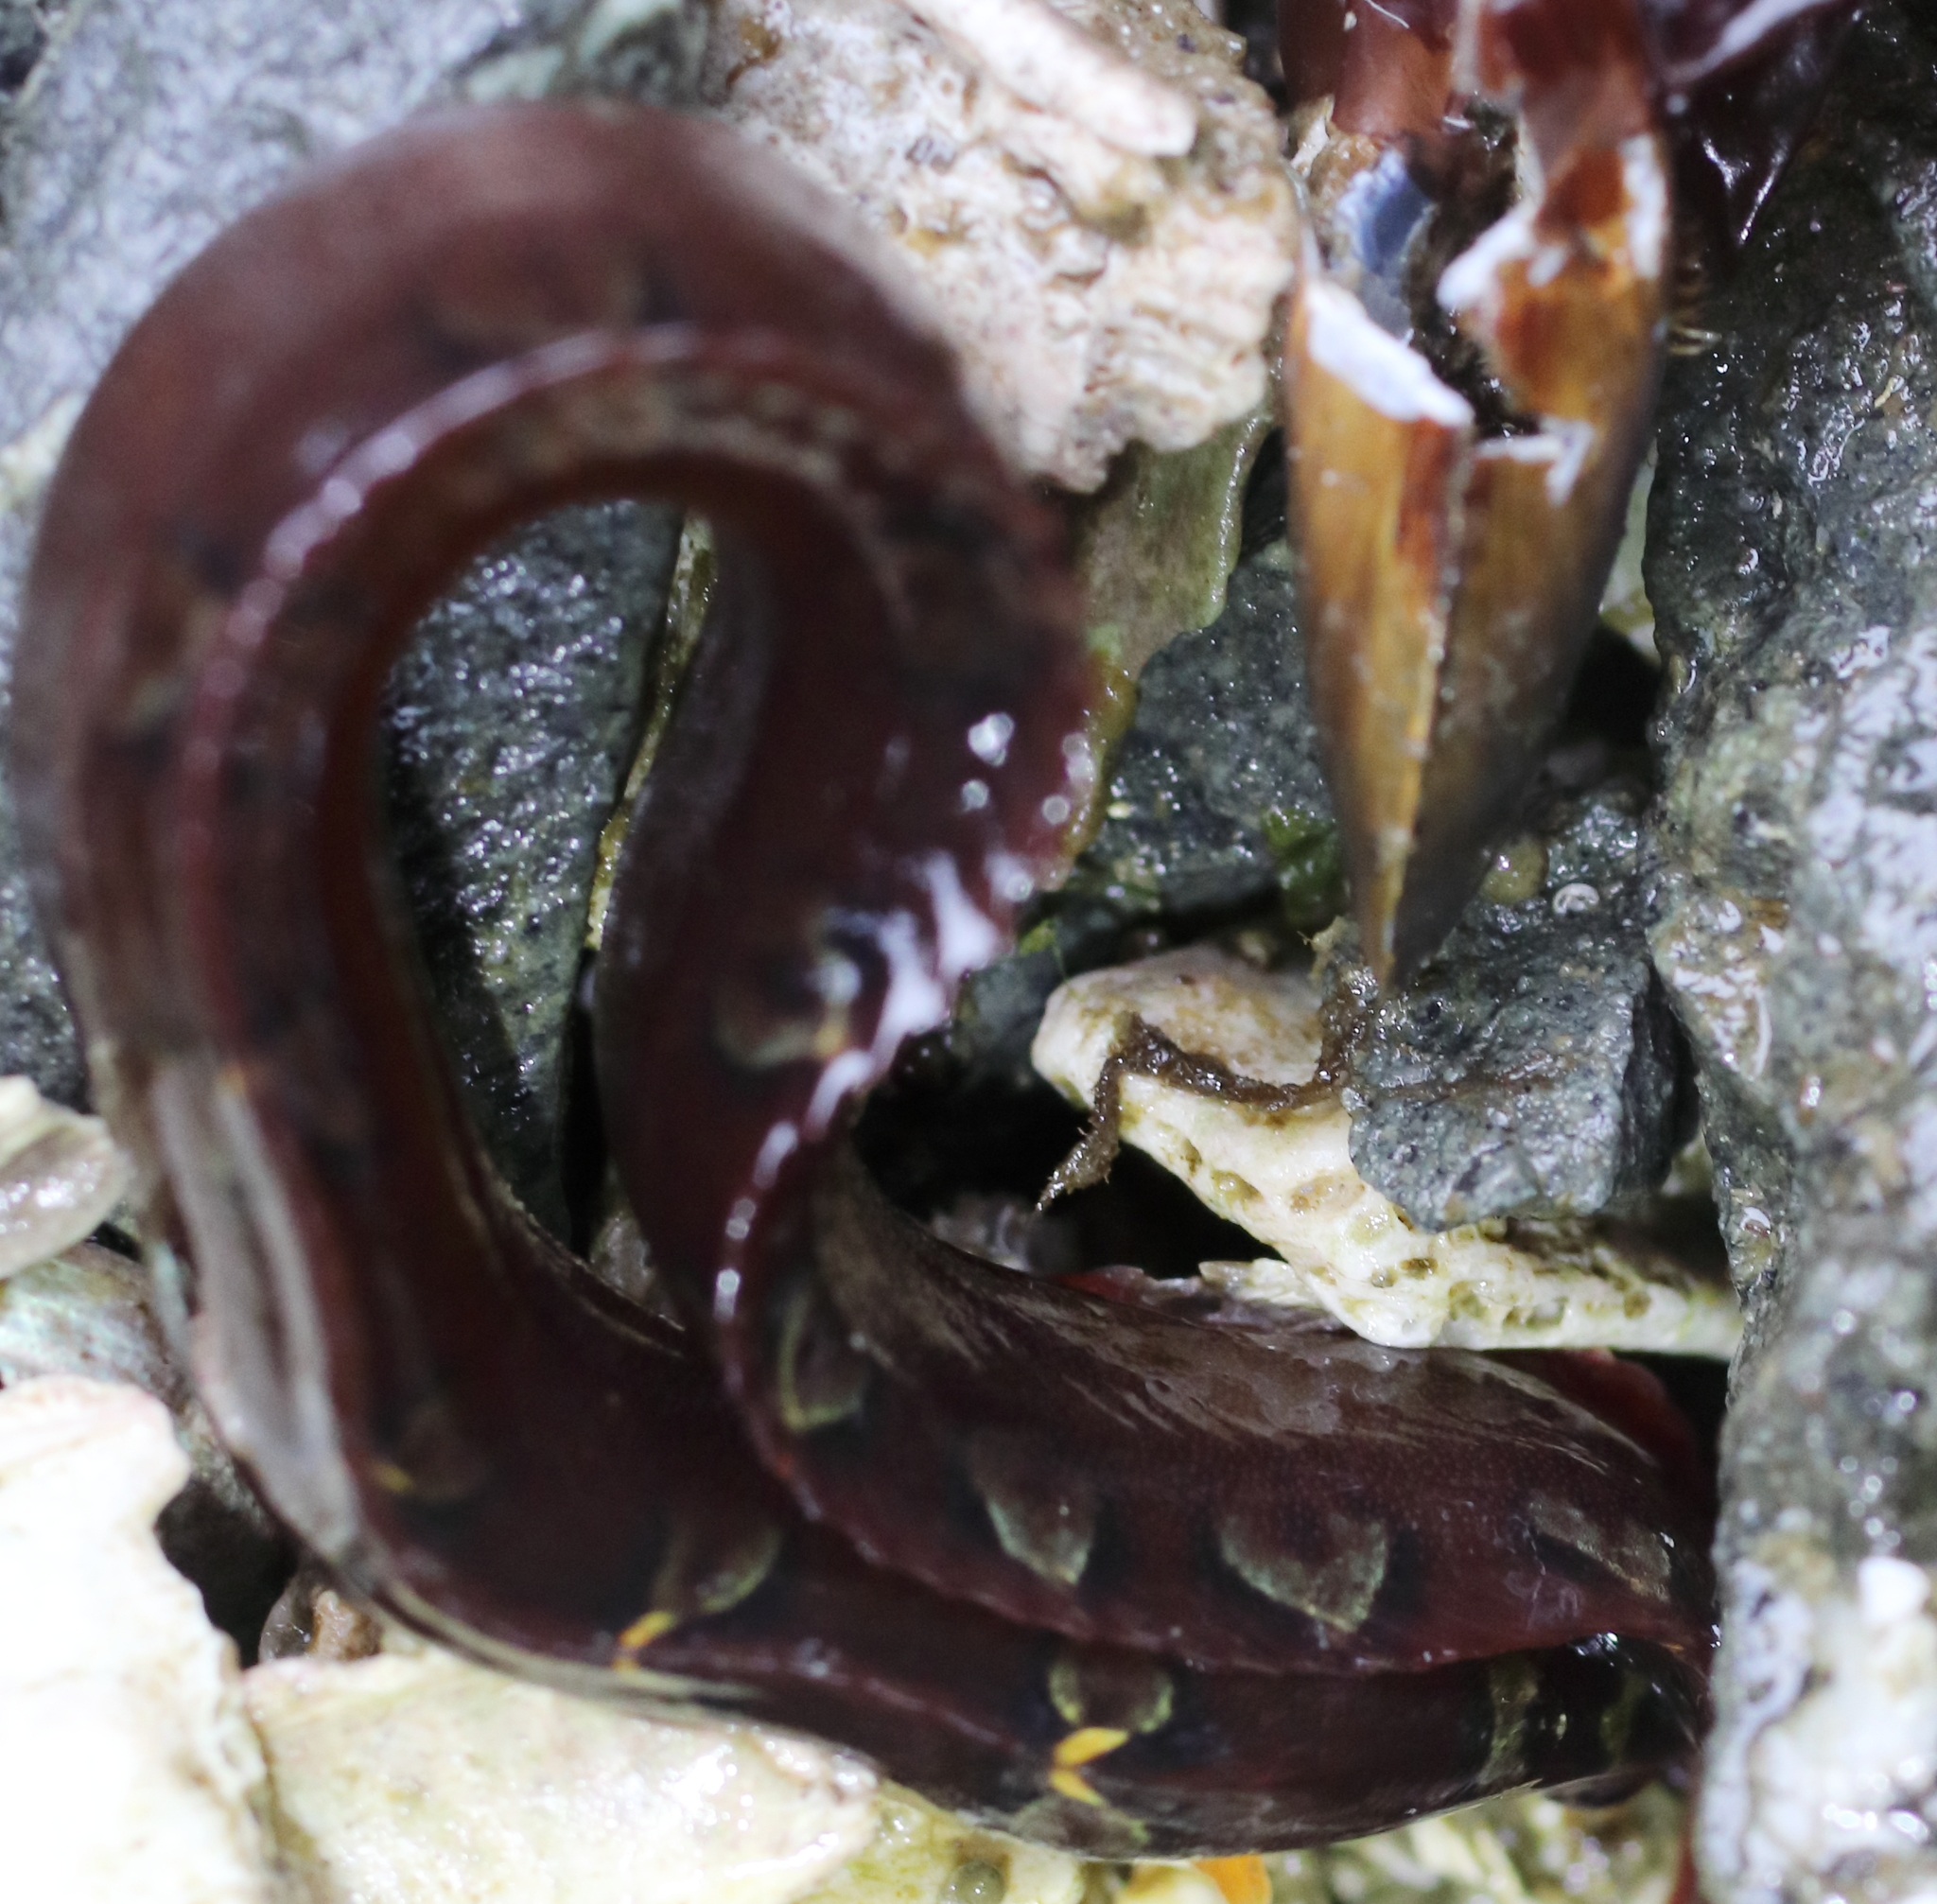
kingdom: Animalia
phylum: Chordata
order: Perciformes
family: Pholidae
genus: Pholis
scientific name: Pholis laeta
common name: Crescent gunnel
